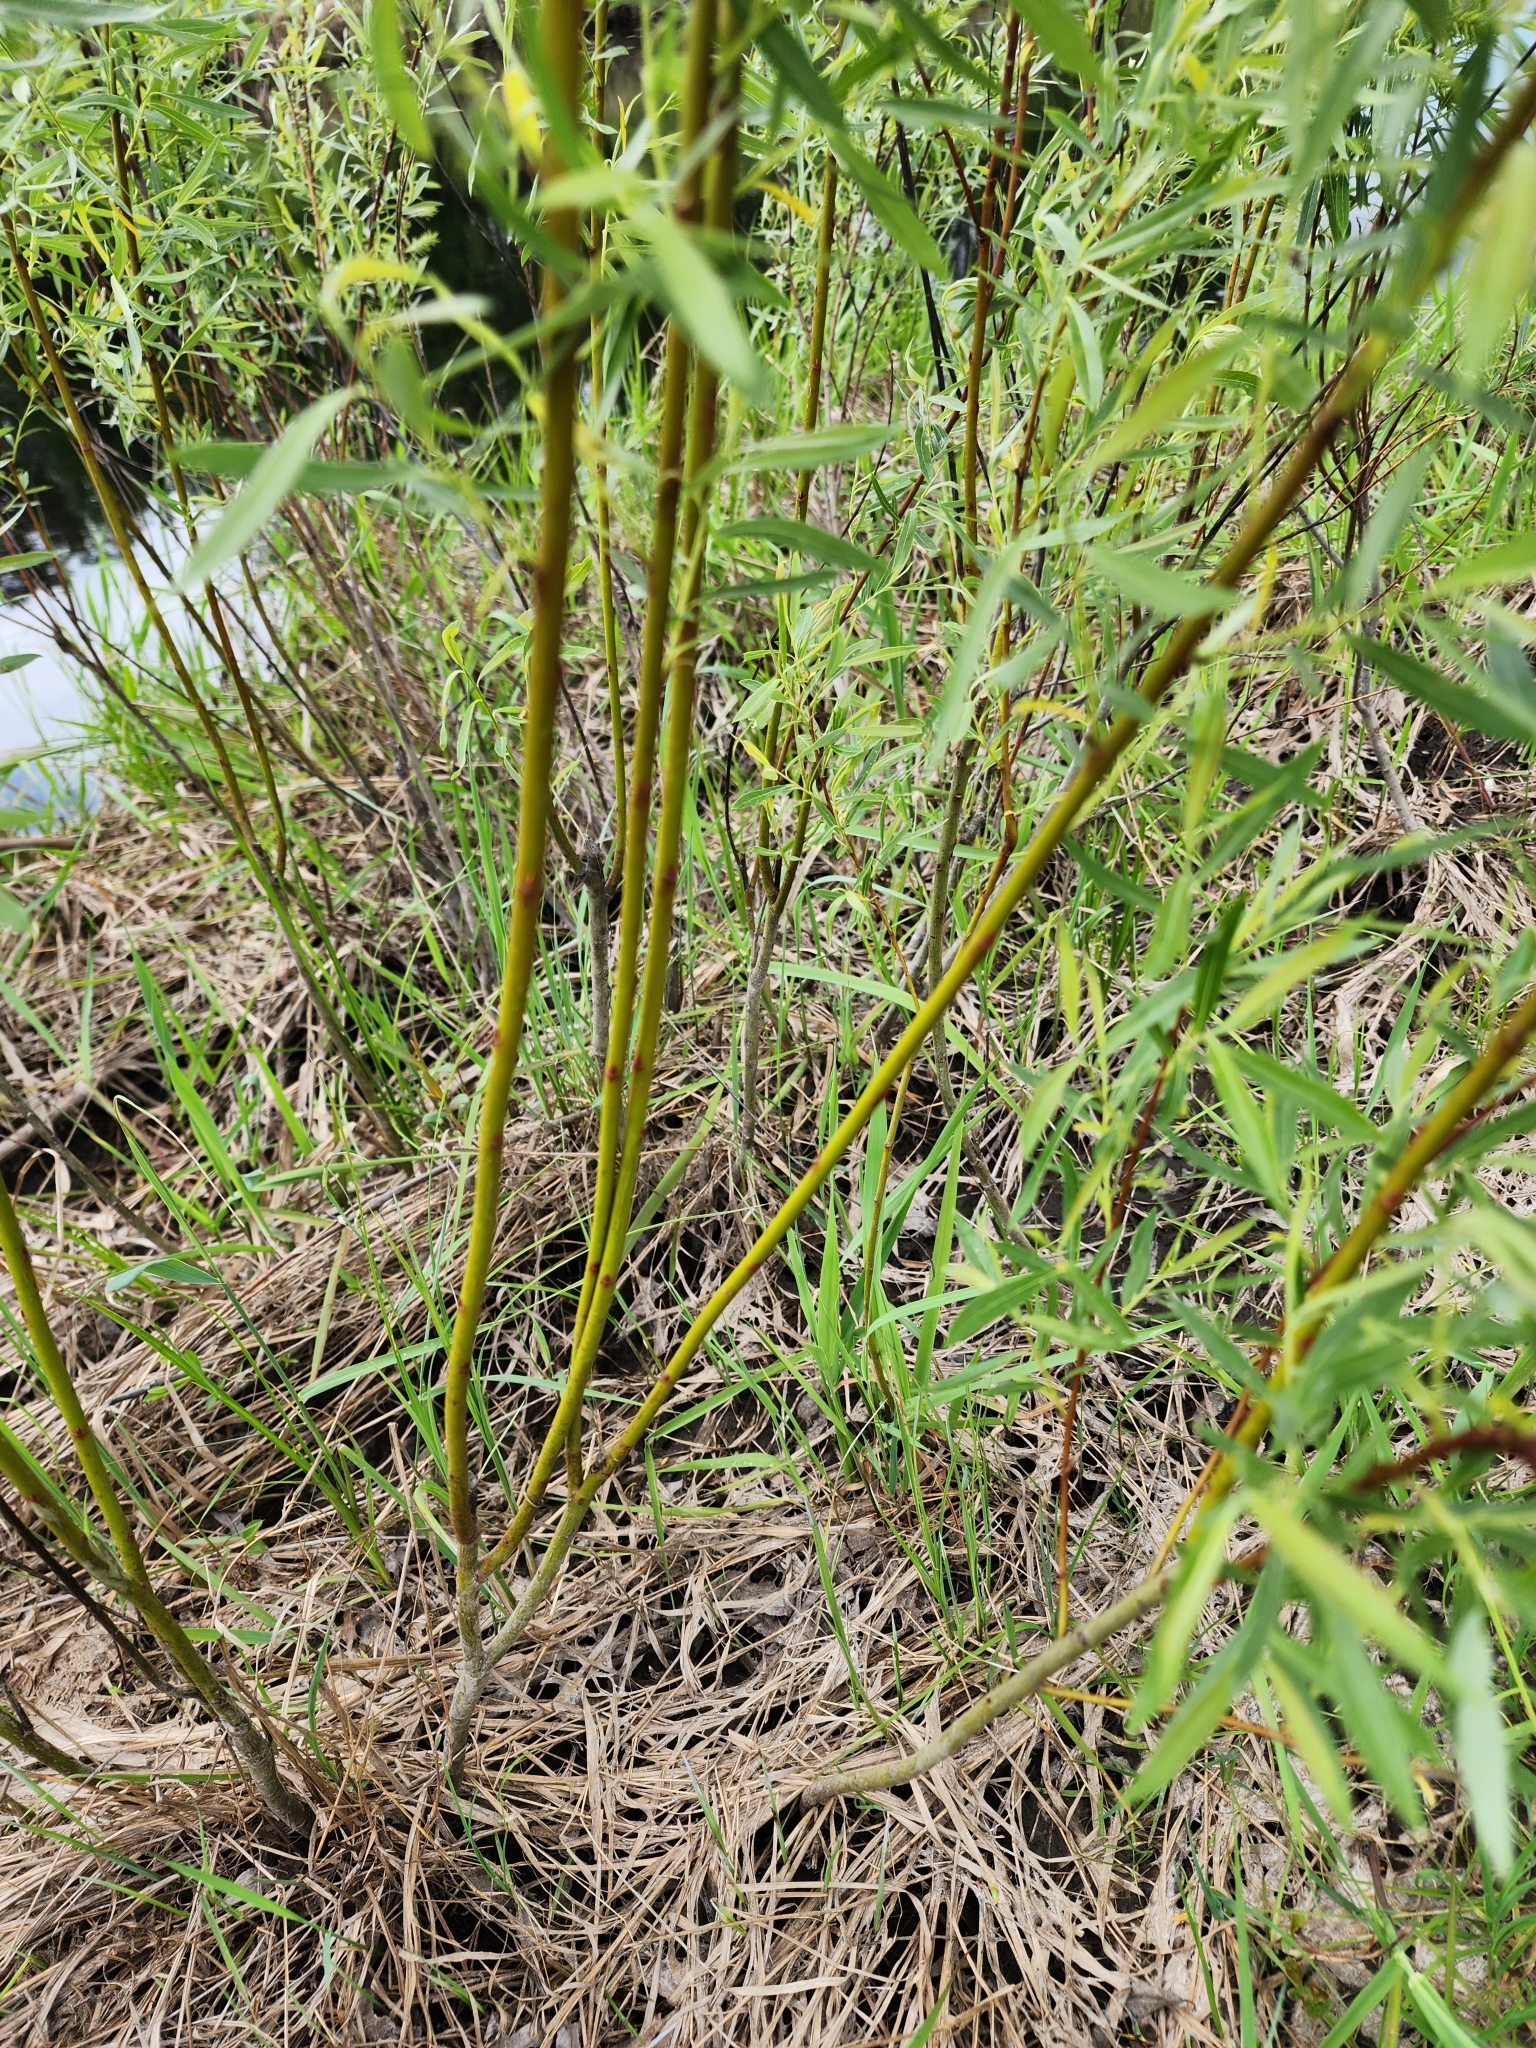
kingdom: Plantae
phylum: Tracheophyta
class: Magnoliopsida
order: Malpighiales
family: Salicaceae
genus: Salix
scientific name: Salix petiolaris
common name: Slender willow
